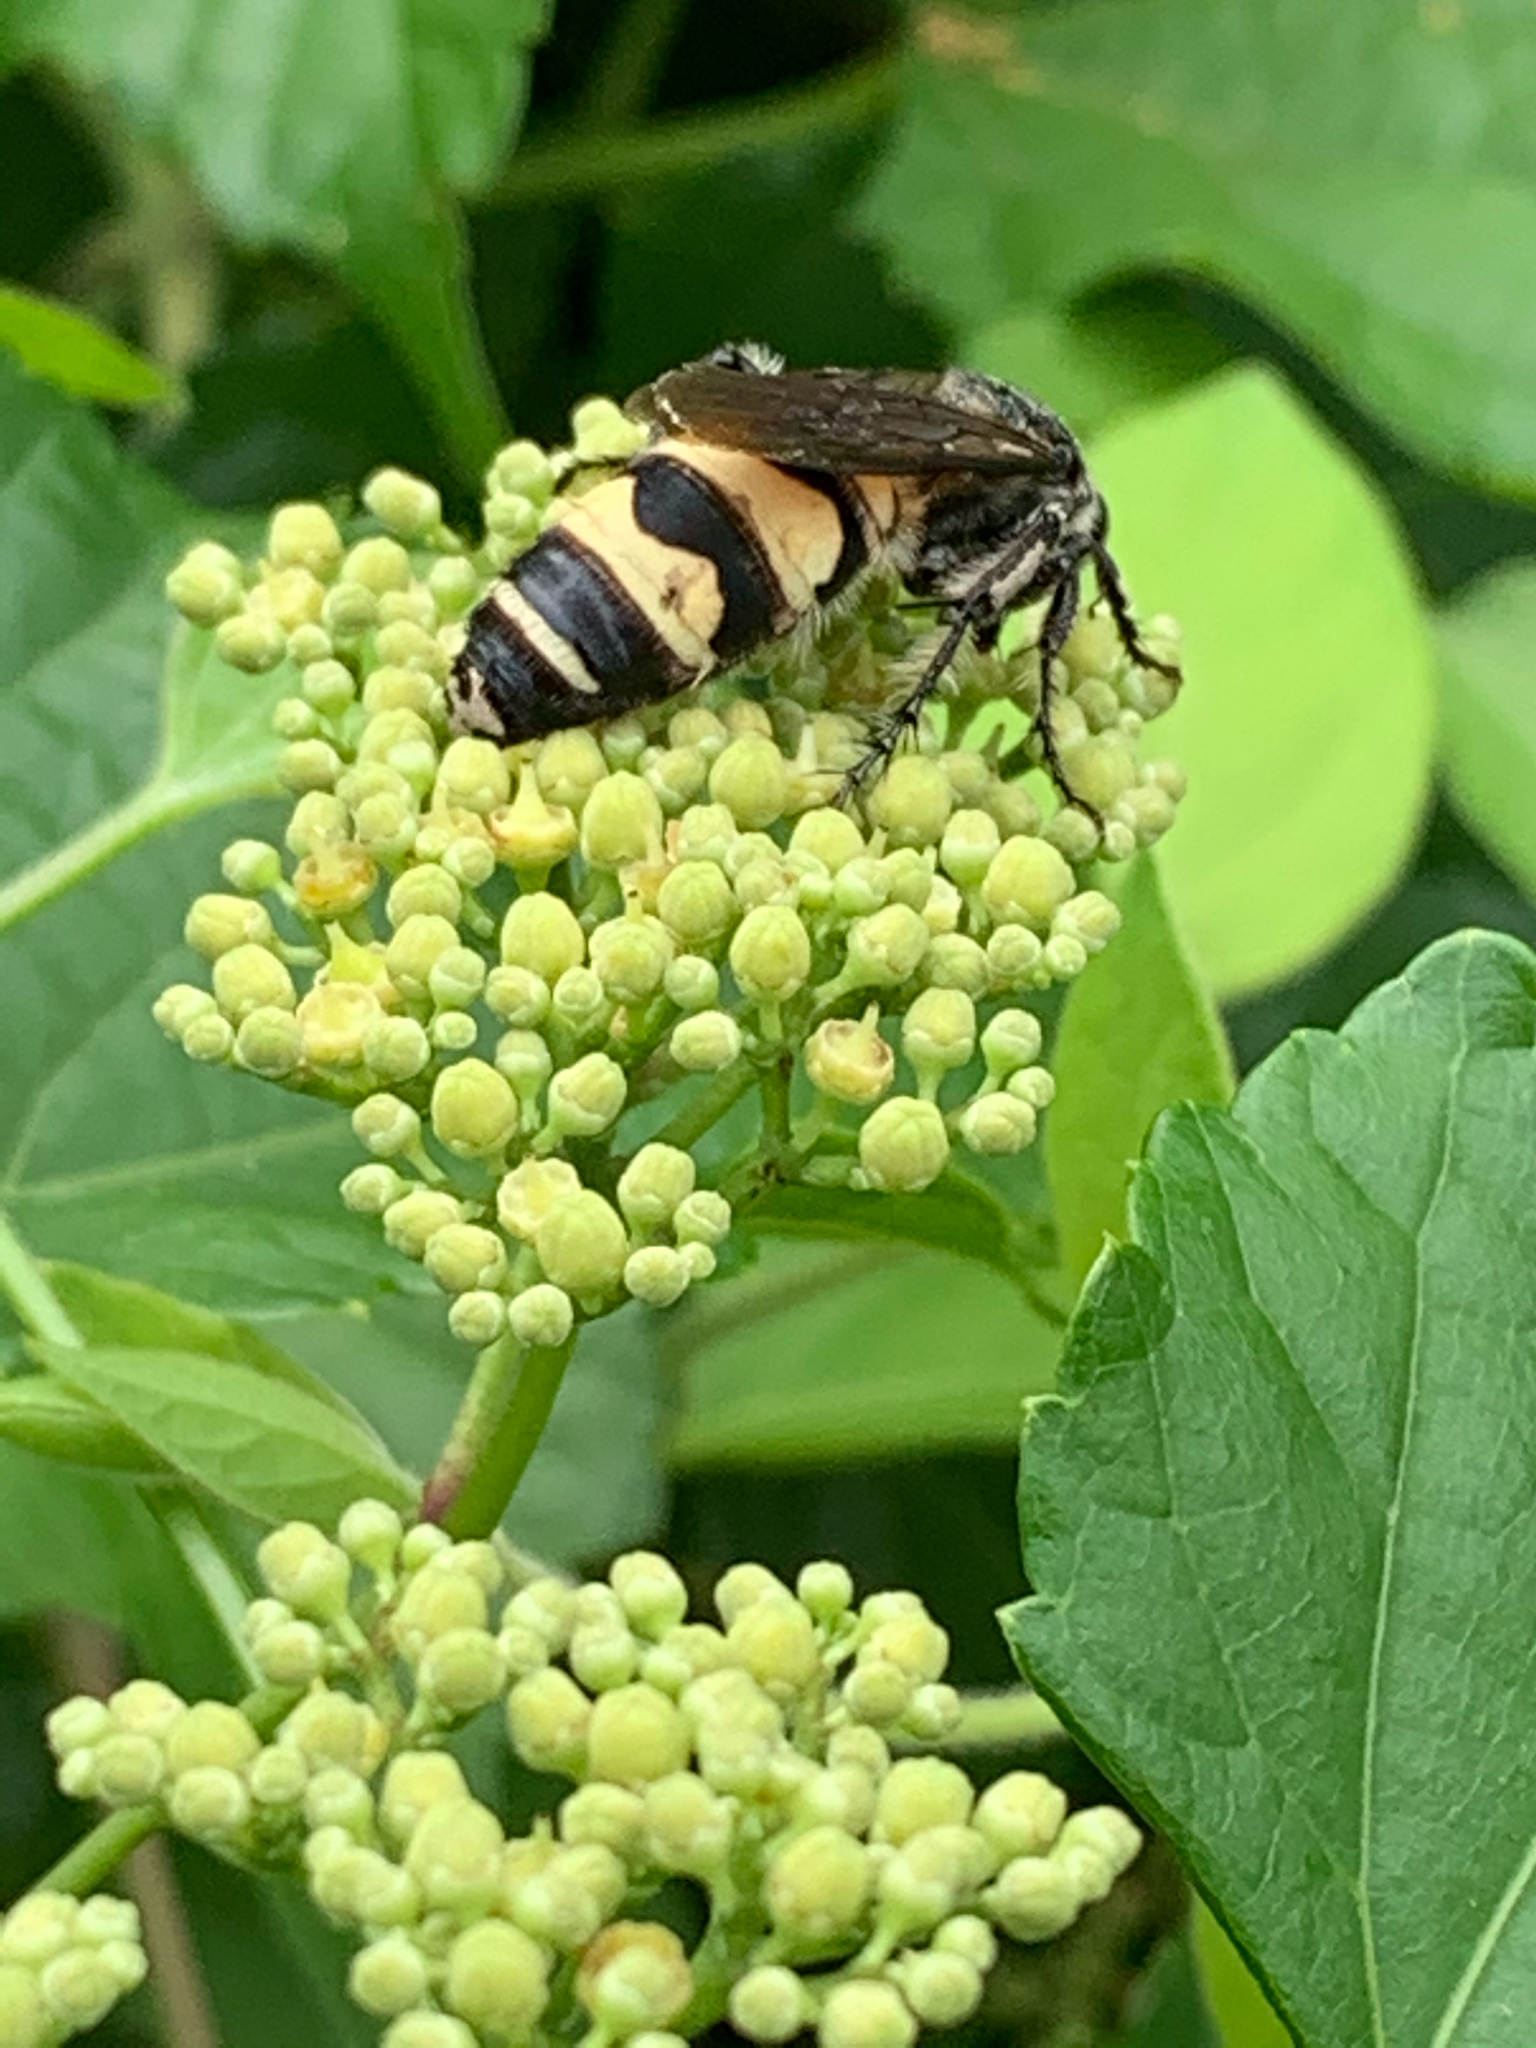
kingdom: Animalia
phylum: Arthropoda
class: Insecta
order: Hymenoptera
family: Scoliidae
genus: Dielis
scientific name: Dielis
